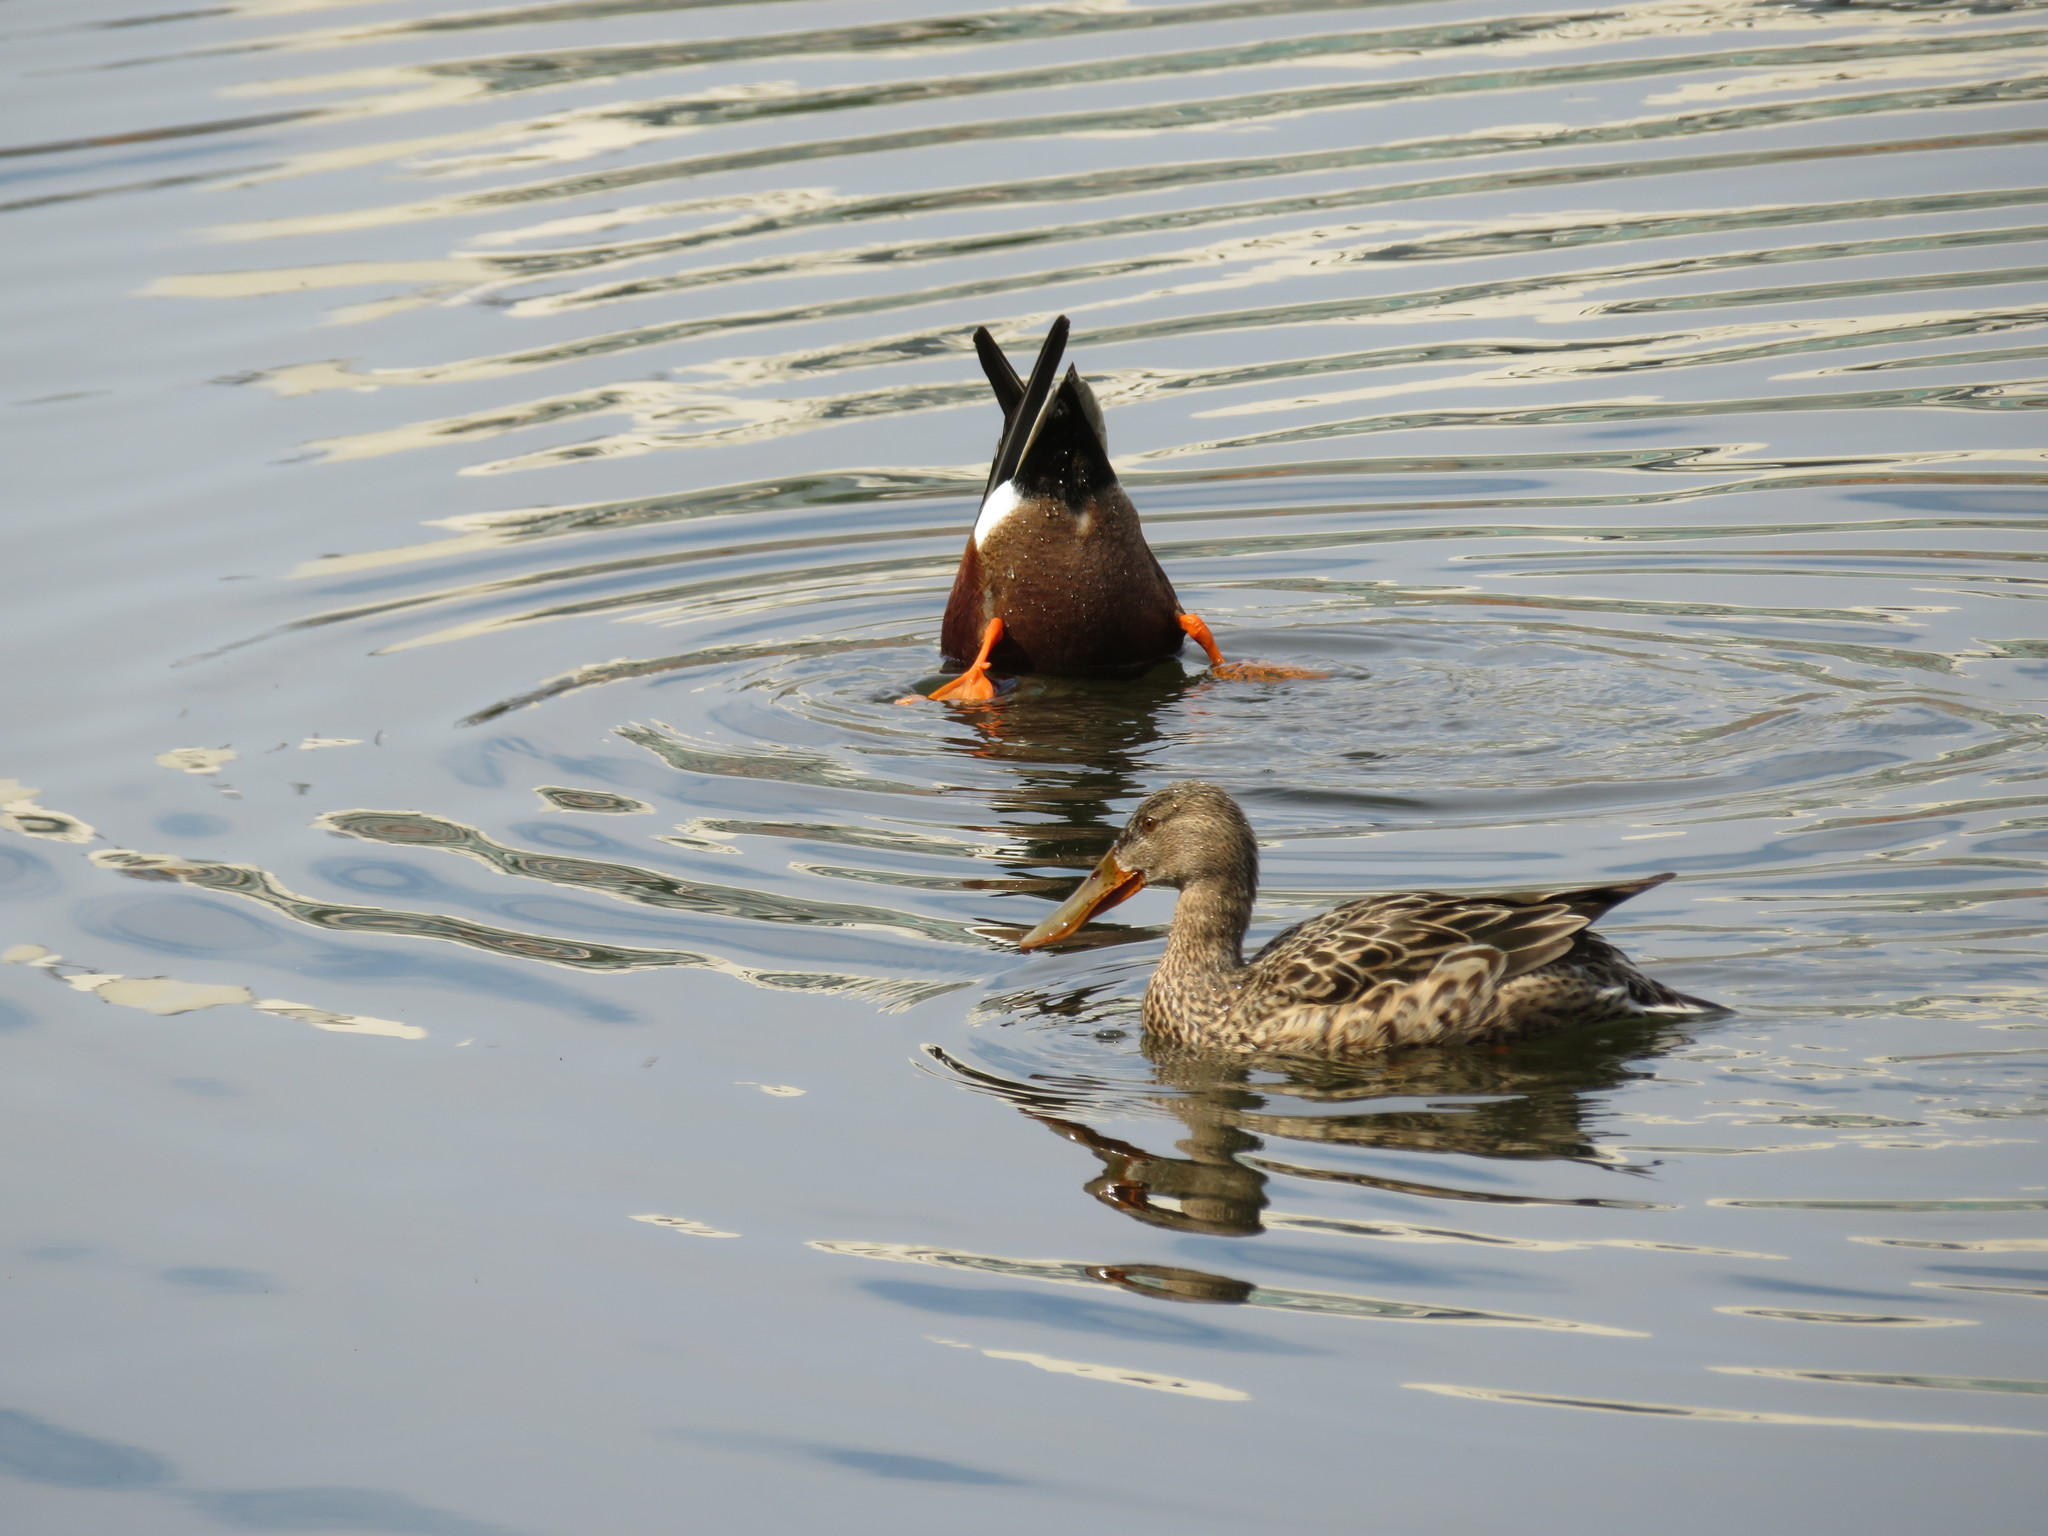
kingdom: Animalia
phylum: Chordata
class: Aves
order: Anseriformes
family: Anatidae
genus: Spatula
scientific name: Spatula clypeata
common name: Northern shoveler
